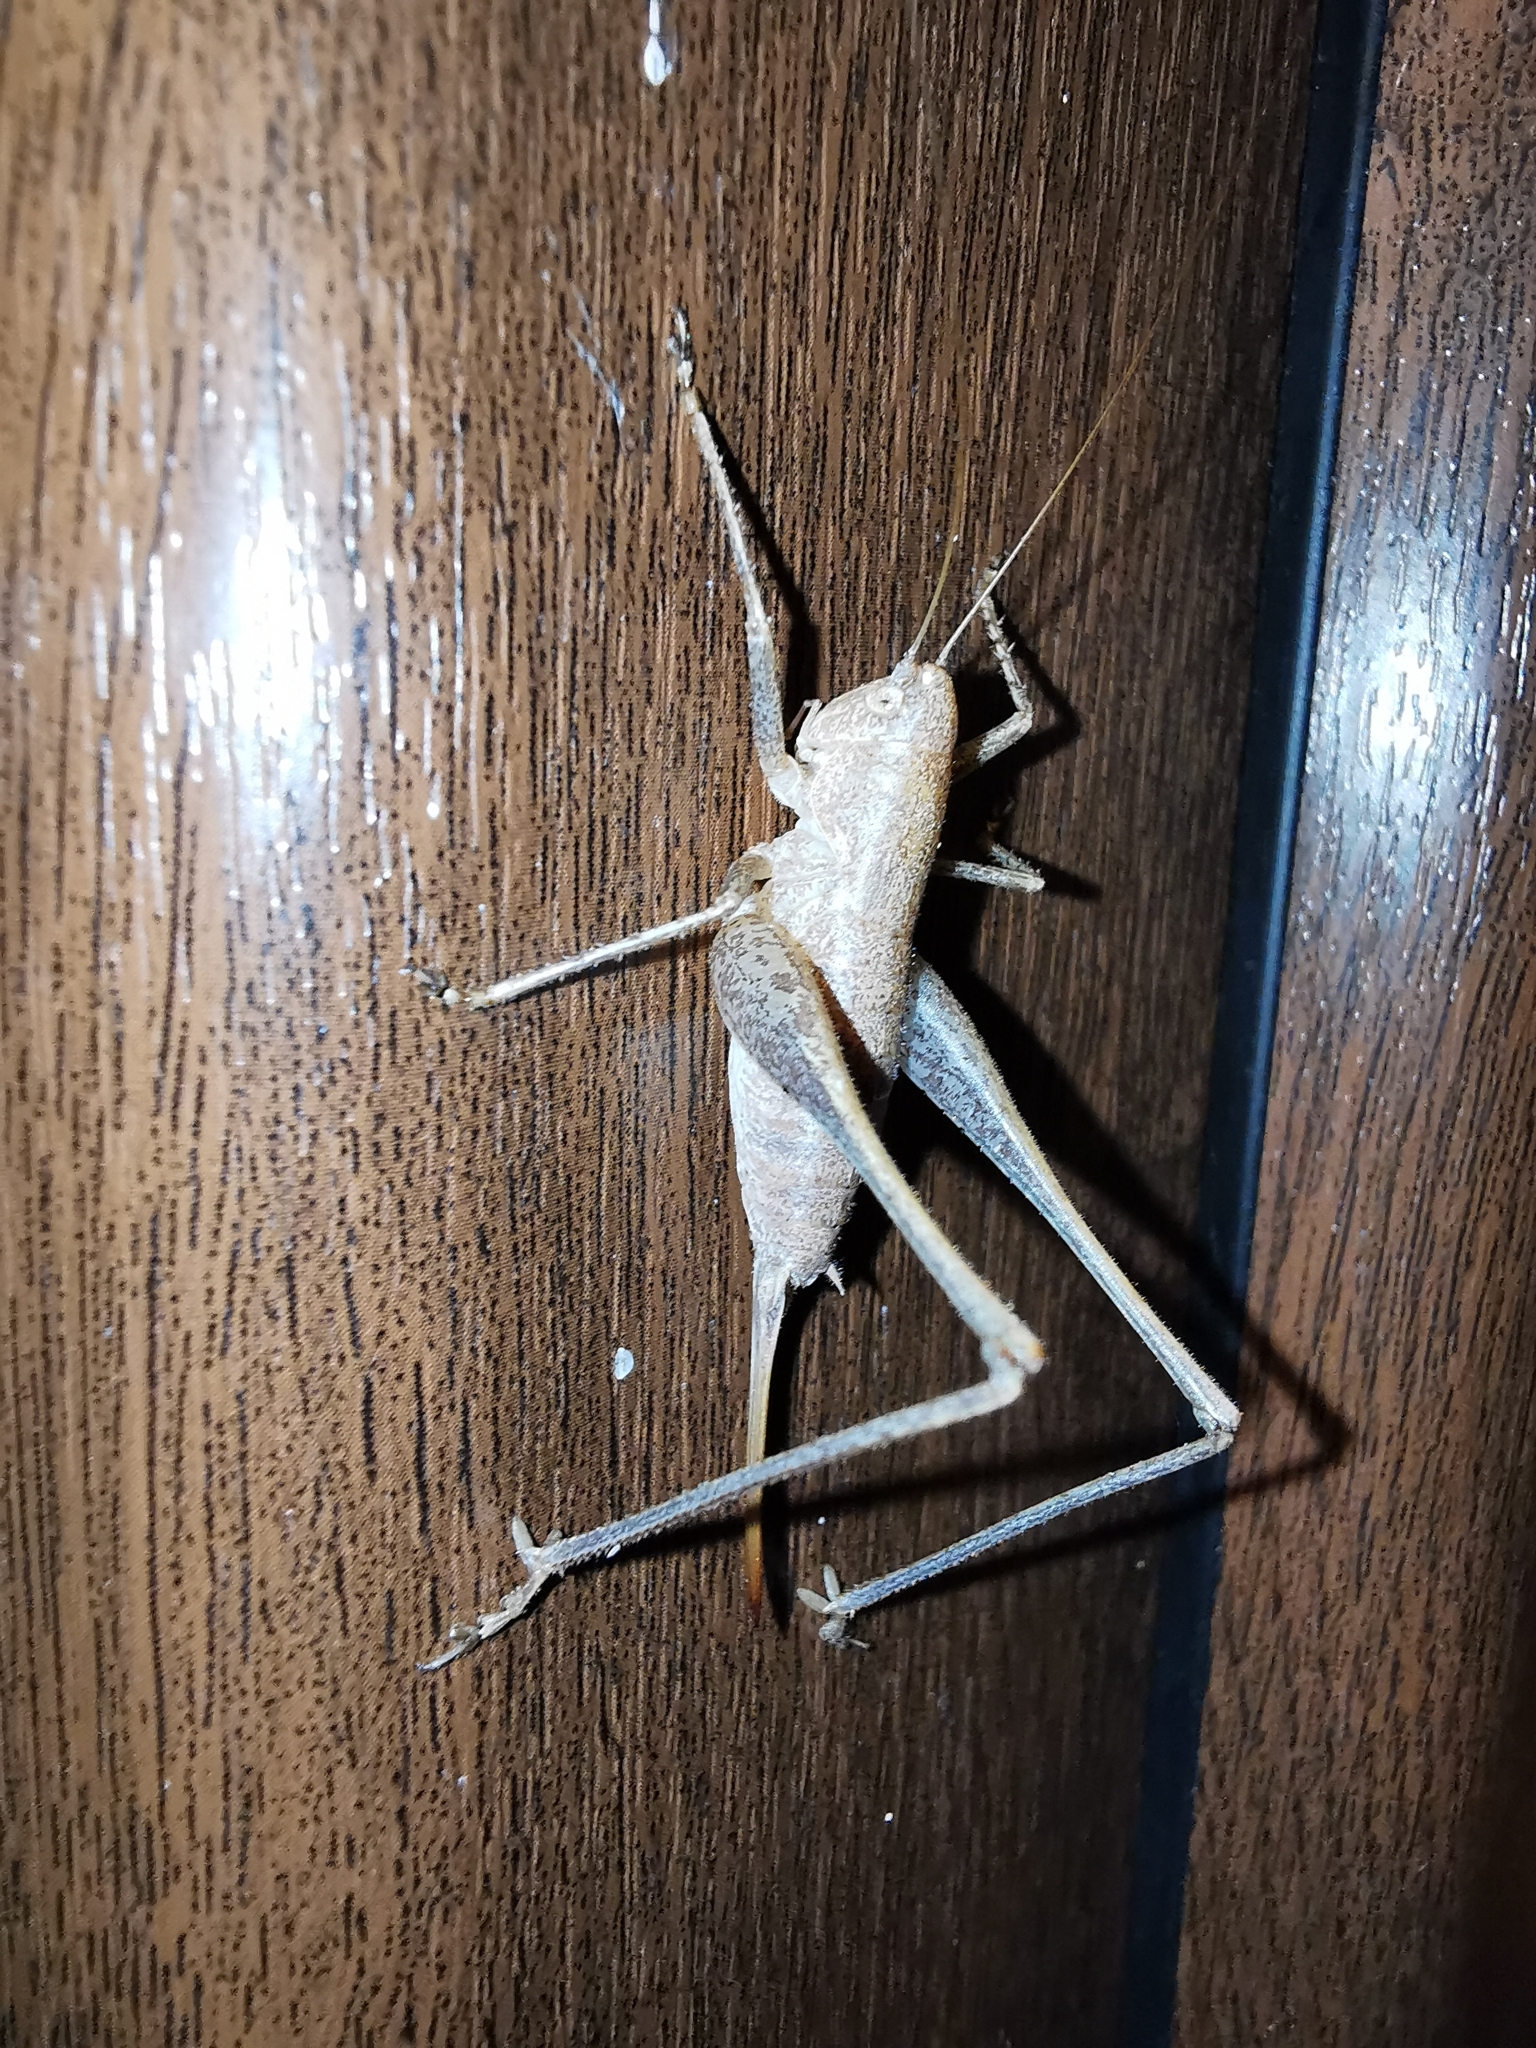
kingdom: Animalia
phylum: Arthropoda
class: Insecta
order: Orthoptera
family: Tettigoniidae
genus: Rhacocleis
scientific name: Rhacocleis germanica
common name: Mediterranean bush-cricket
